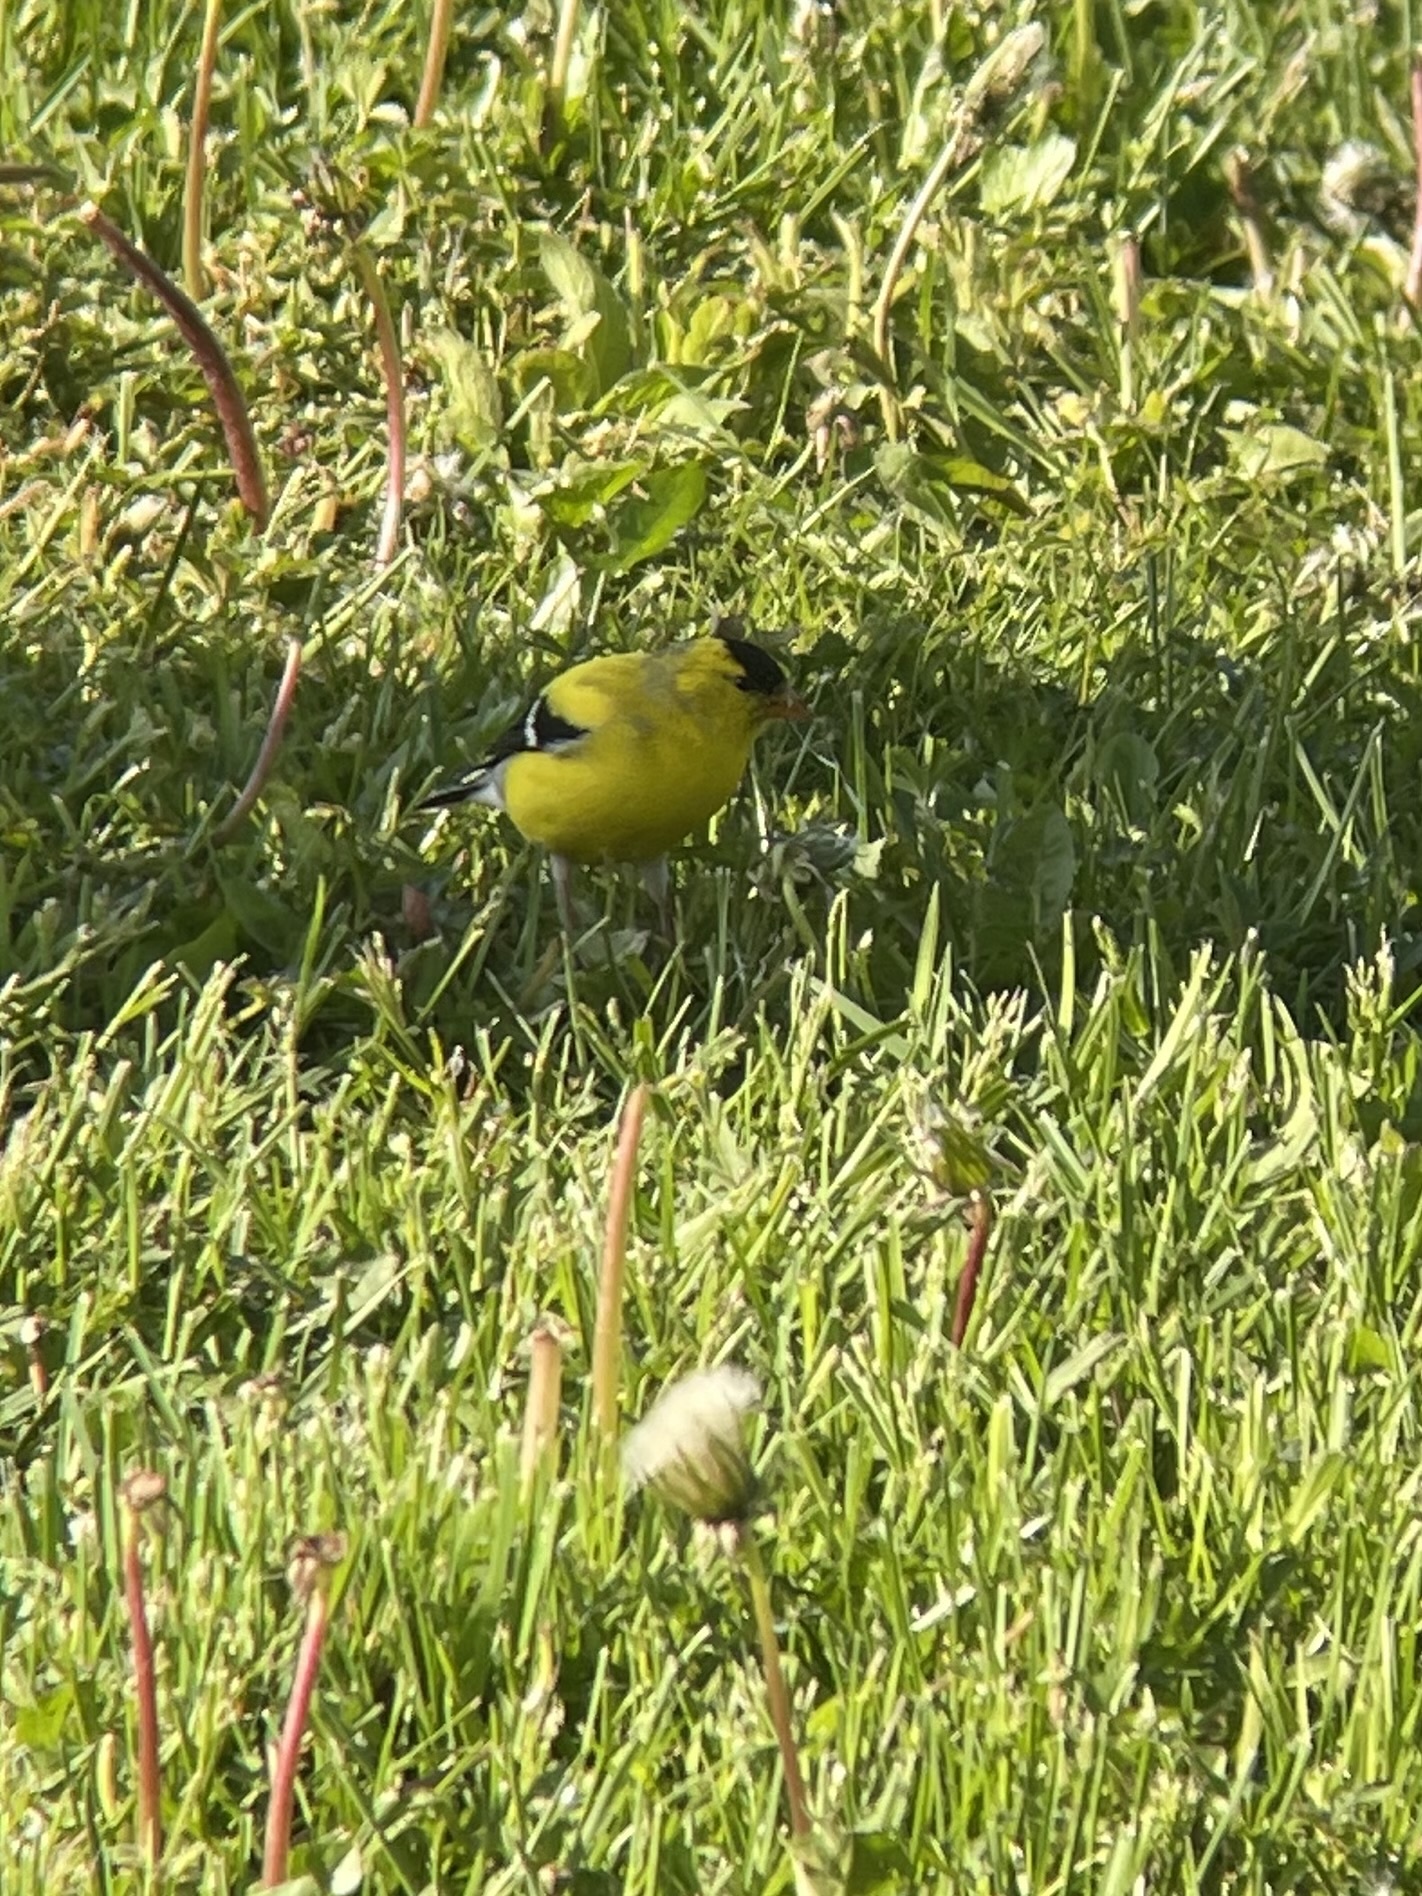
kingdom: Animalia
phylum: Chordata
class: Aves
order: Passeriformes
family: Fringillidae
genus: Spinus
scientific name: Spinus tristis
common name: American goldfinch
